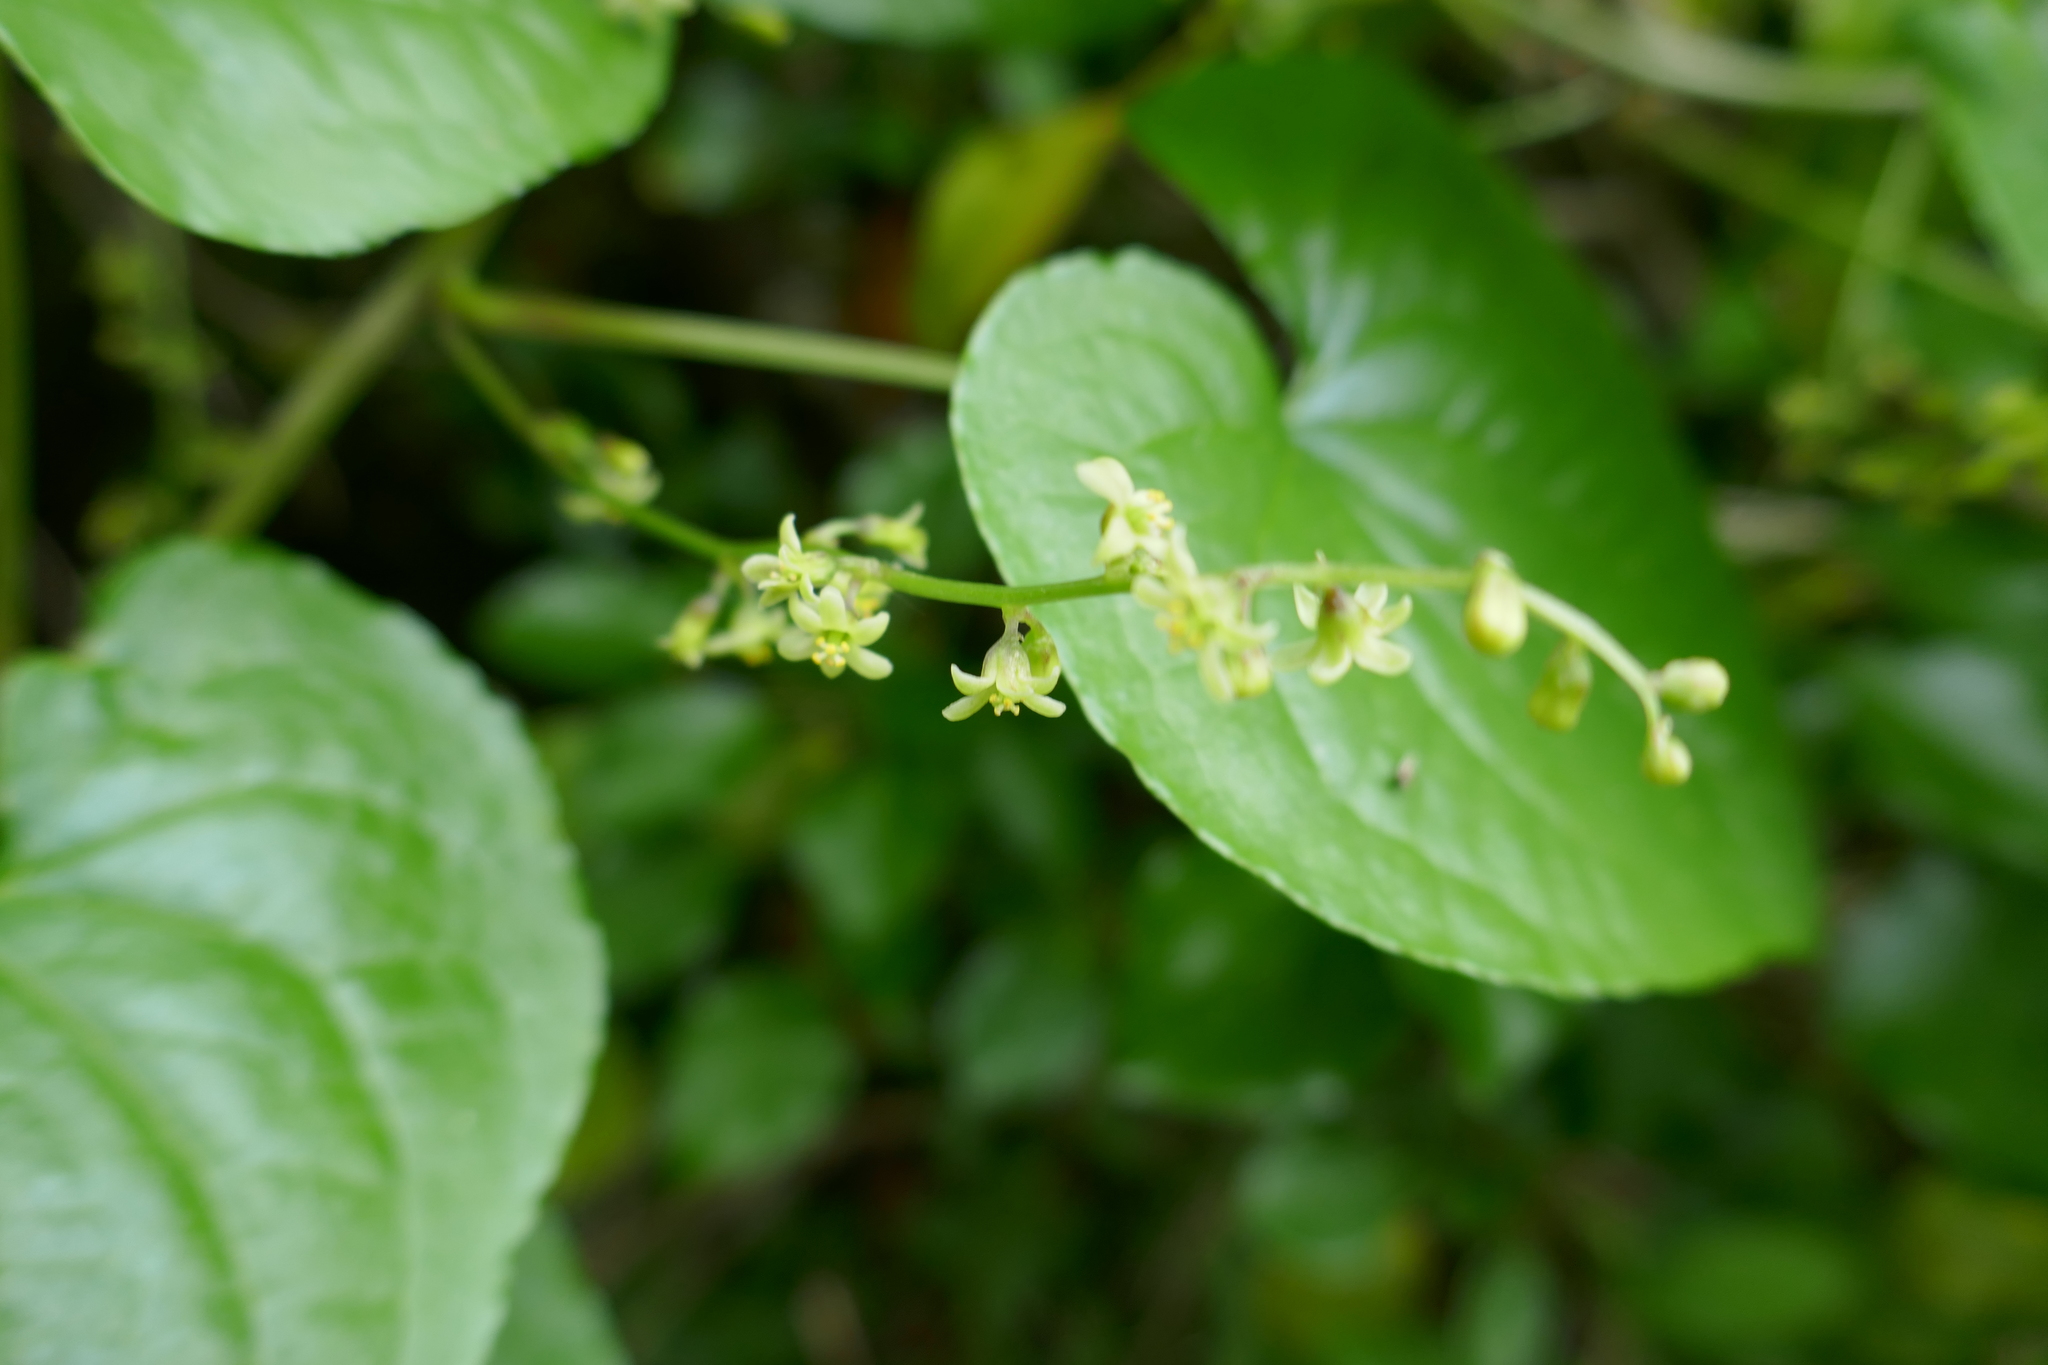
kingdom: Plantae
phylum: Tracheophyta
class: Liliopsida
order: Dioscoreales
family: Dioscoreaceae
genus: Dioscorea
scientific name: Dioscorea communis
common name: Black-bindweed
